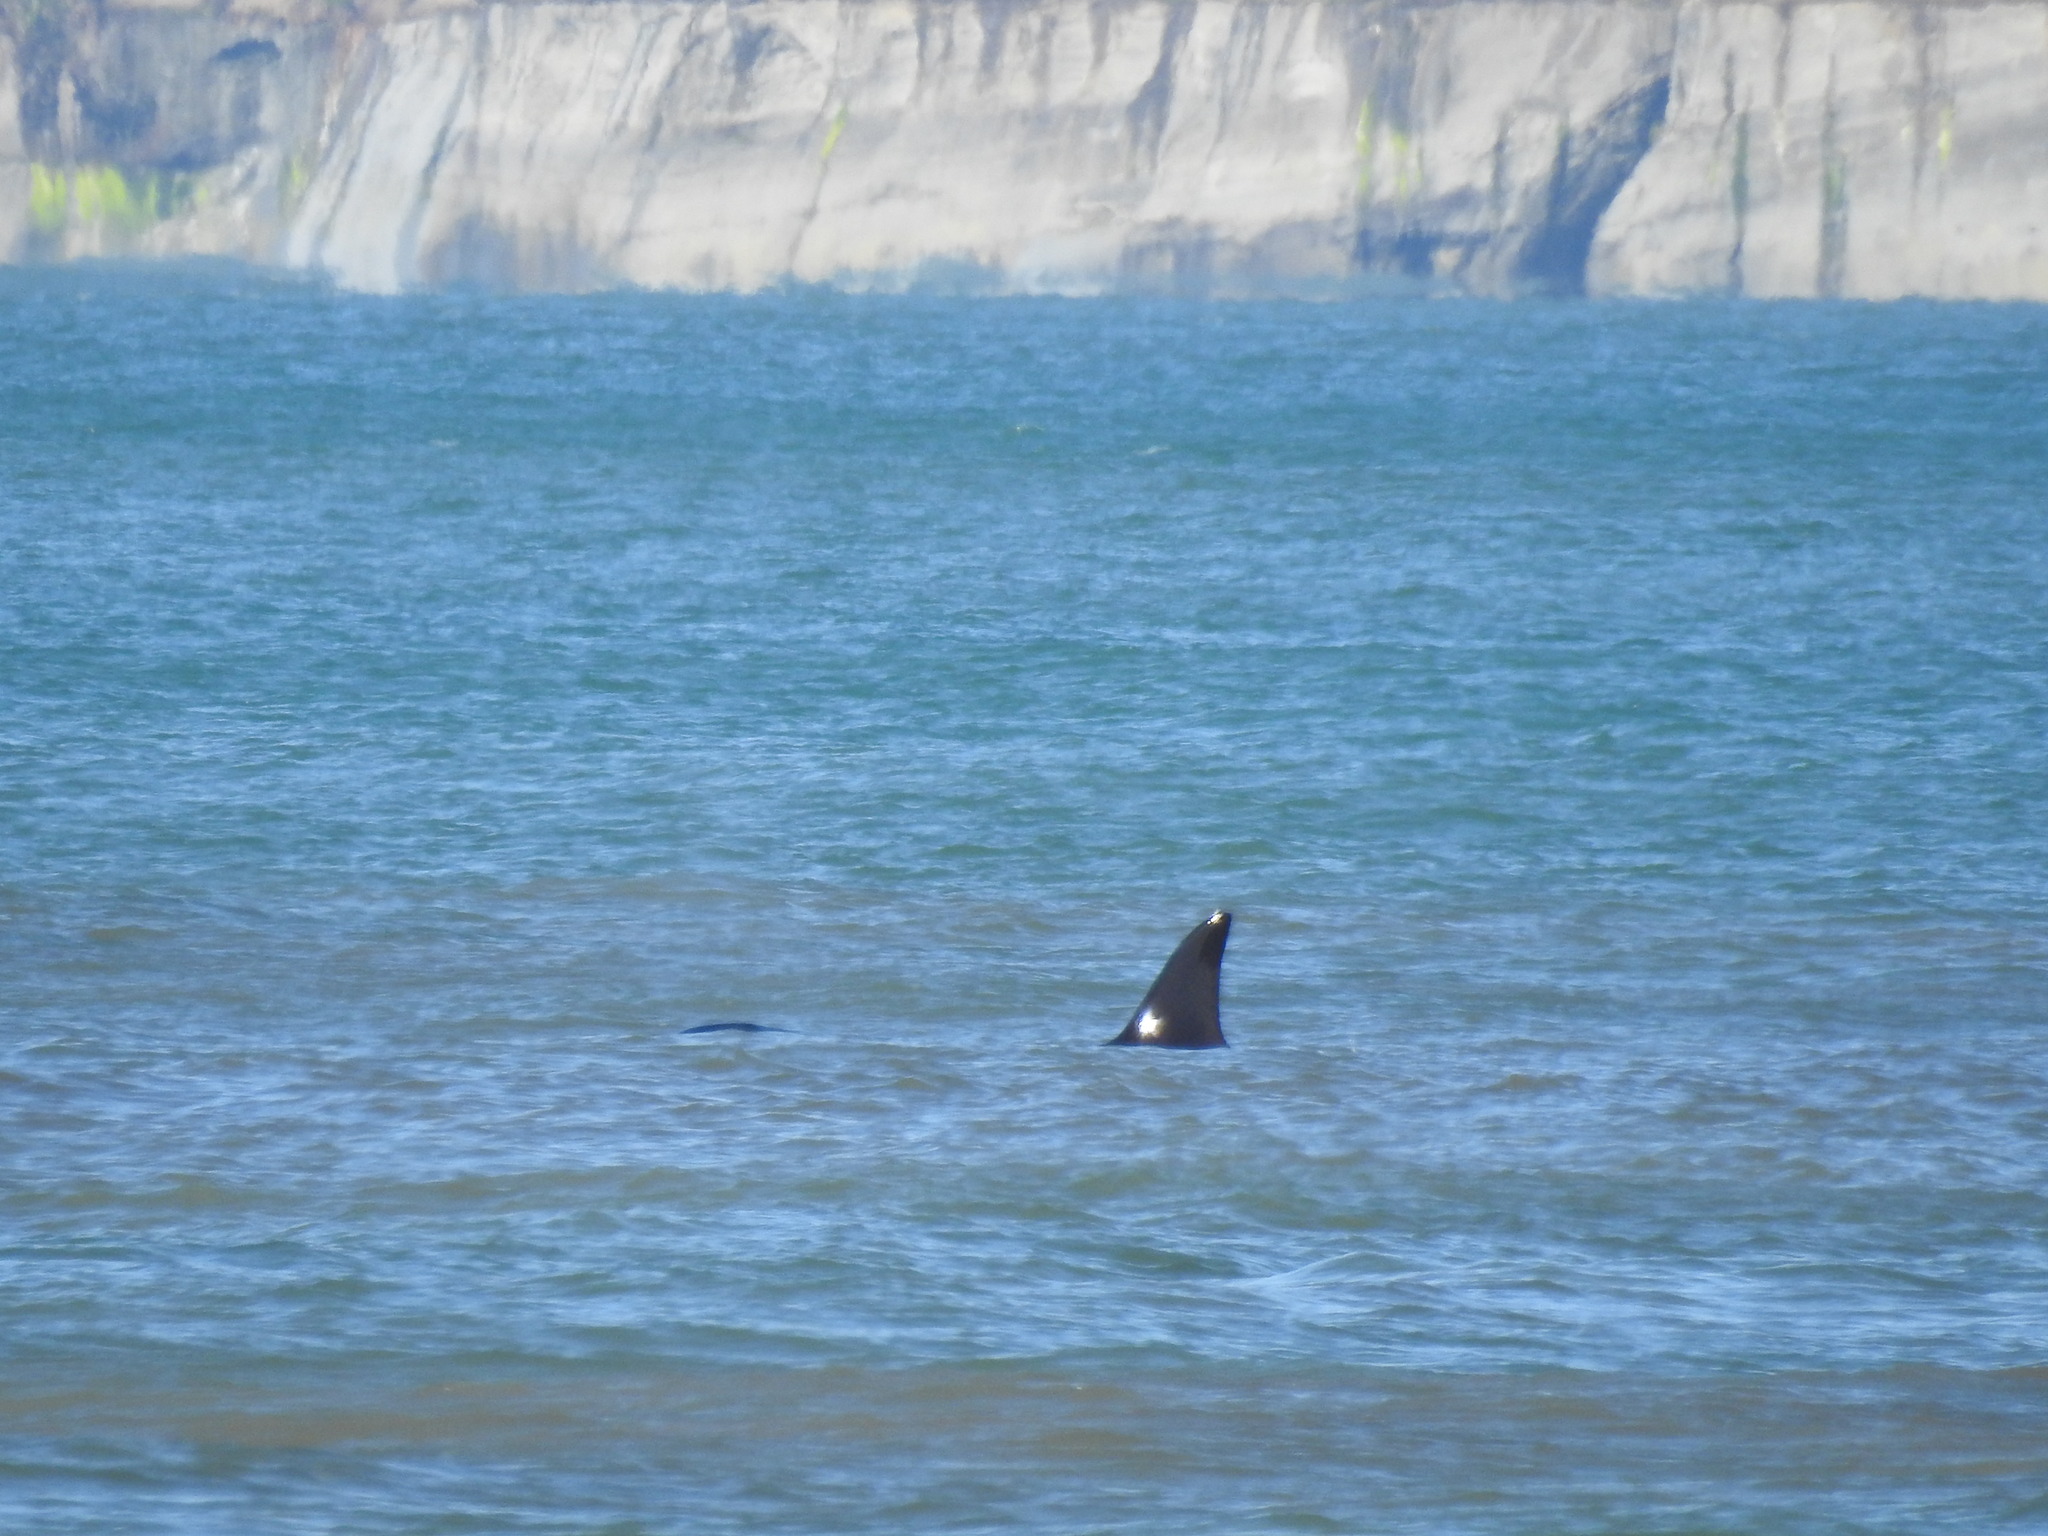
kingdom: Animalia
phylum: Chordata
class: Mammalia
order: Cetacea
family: Delphinidae
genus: Orcinus
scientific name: Orcinus orca
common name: Killer whale
